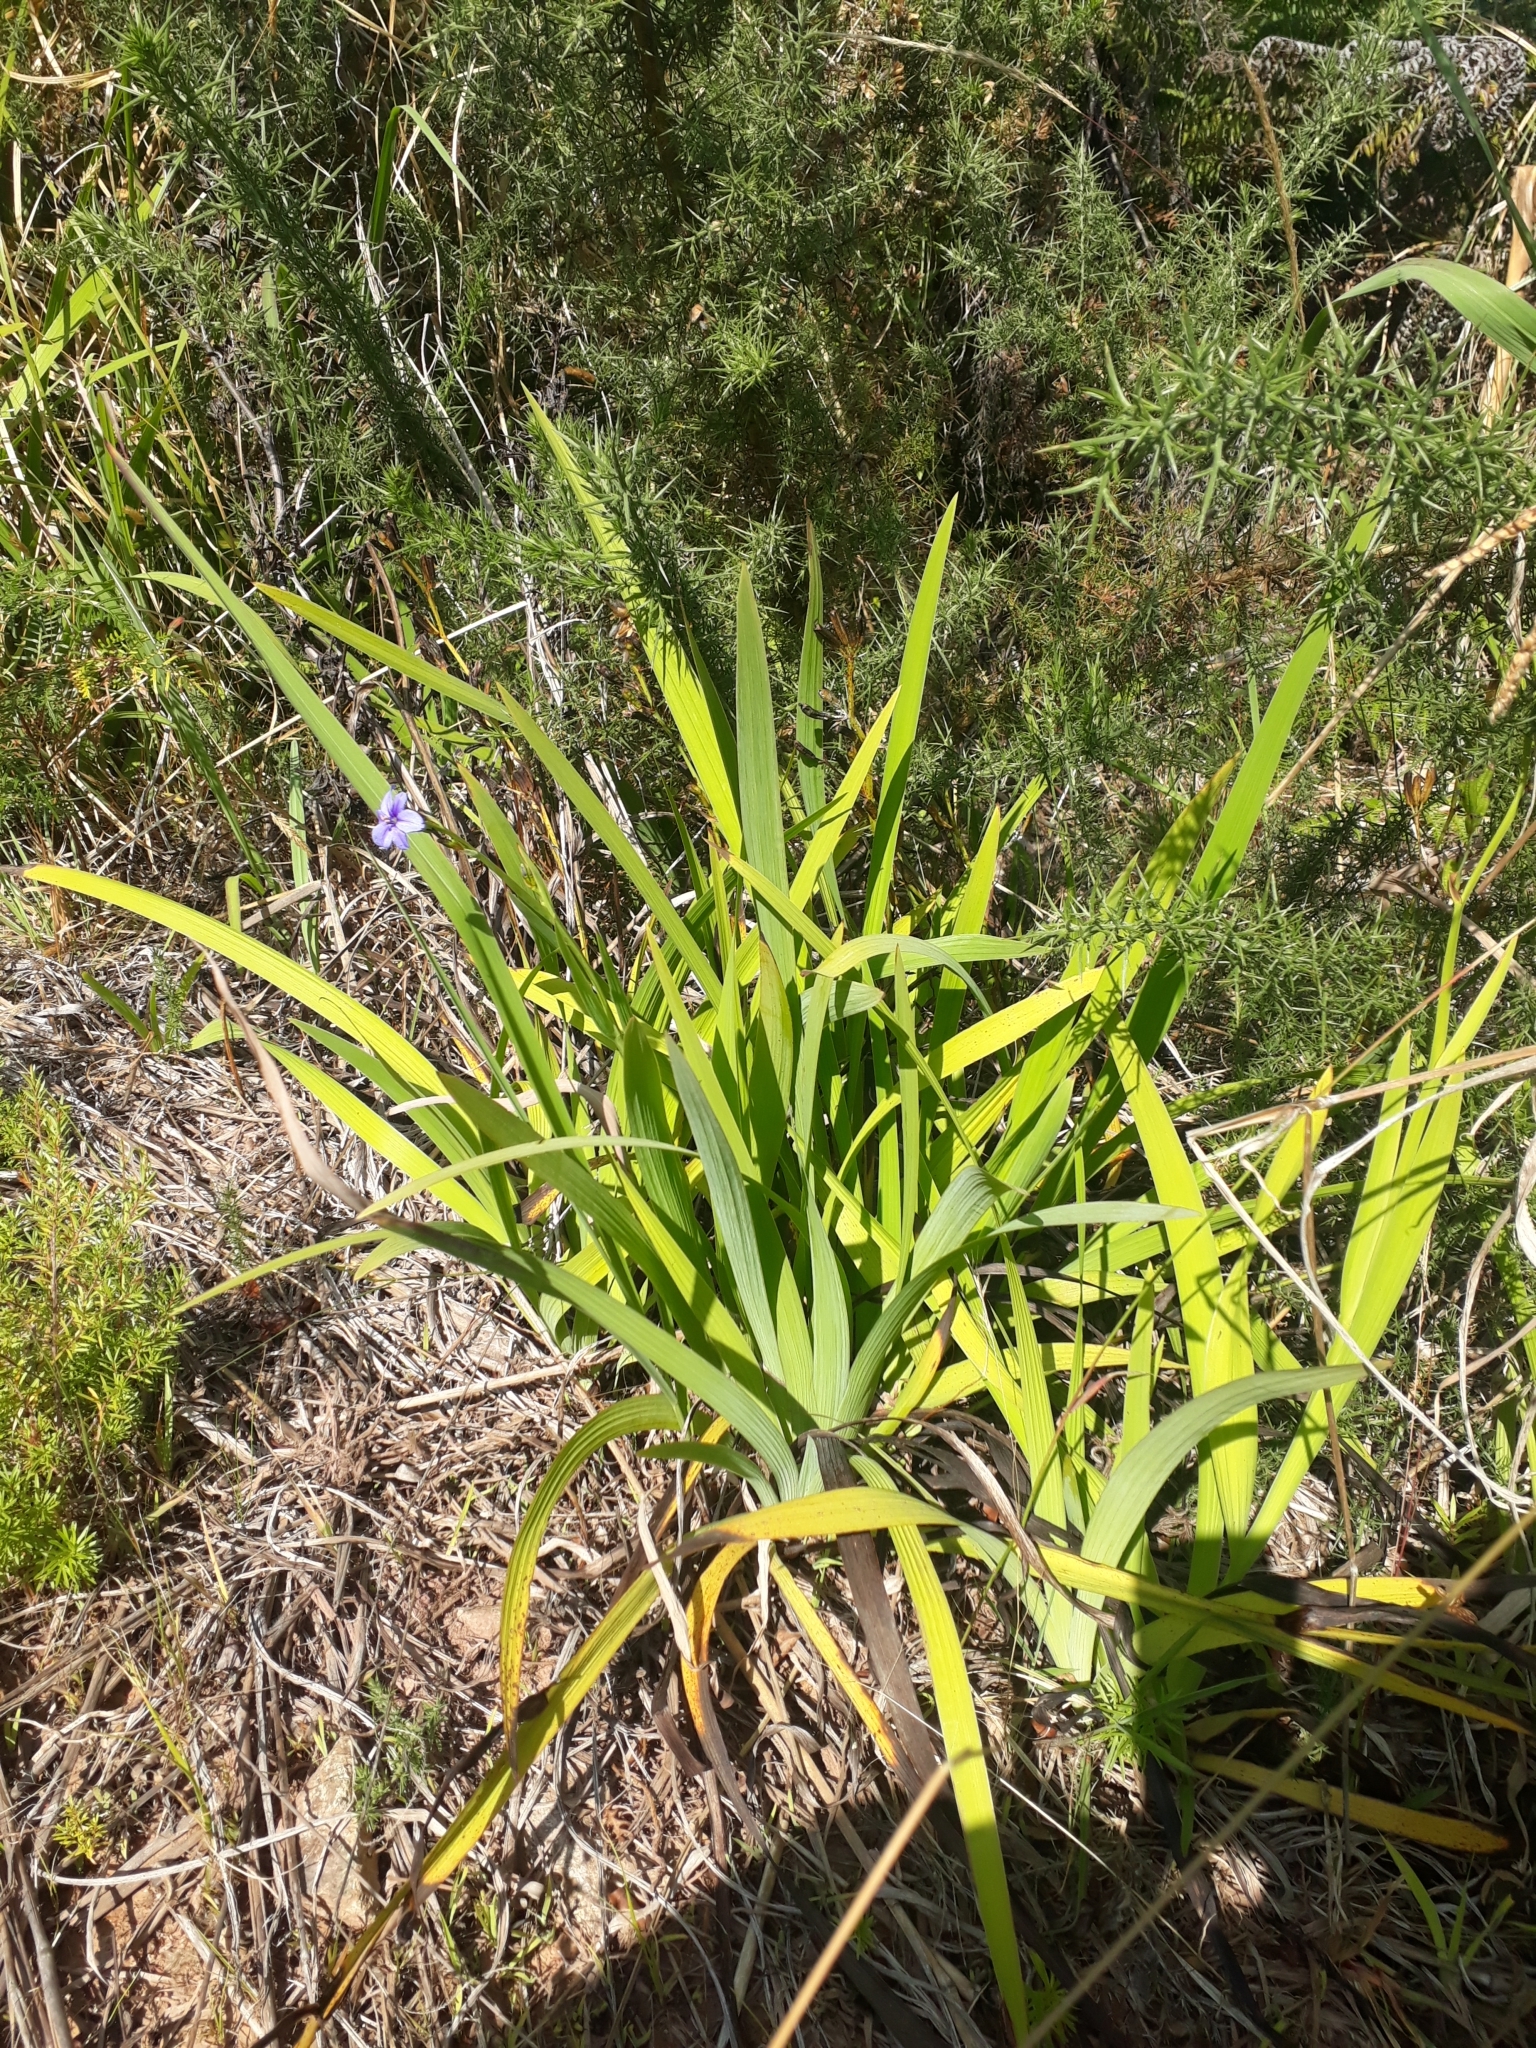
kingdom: Plantae
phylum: Tracheophyta
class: Liliopsida
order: Asparagales
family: Iridaceae
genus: Aristea
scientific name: Aristea ecklonii
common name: Blue corn-lily
